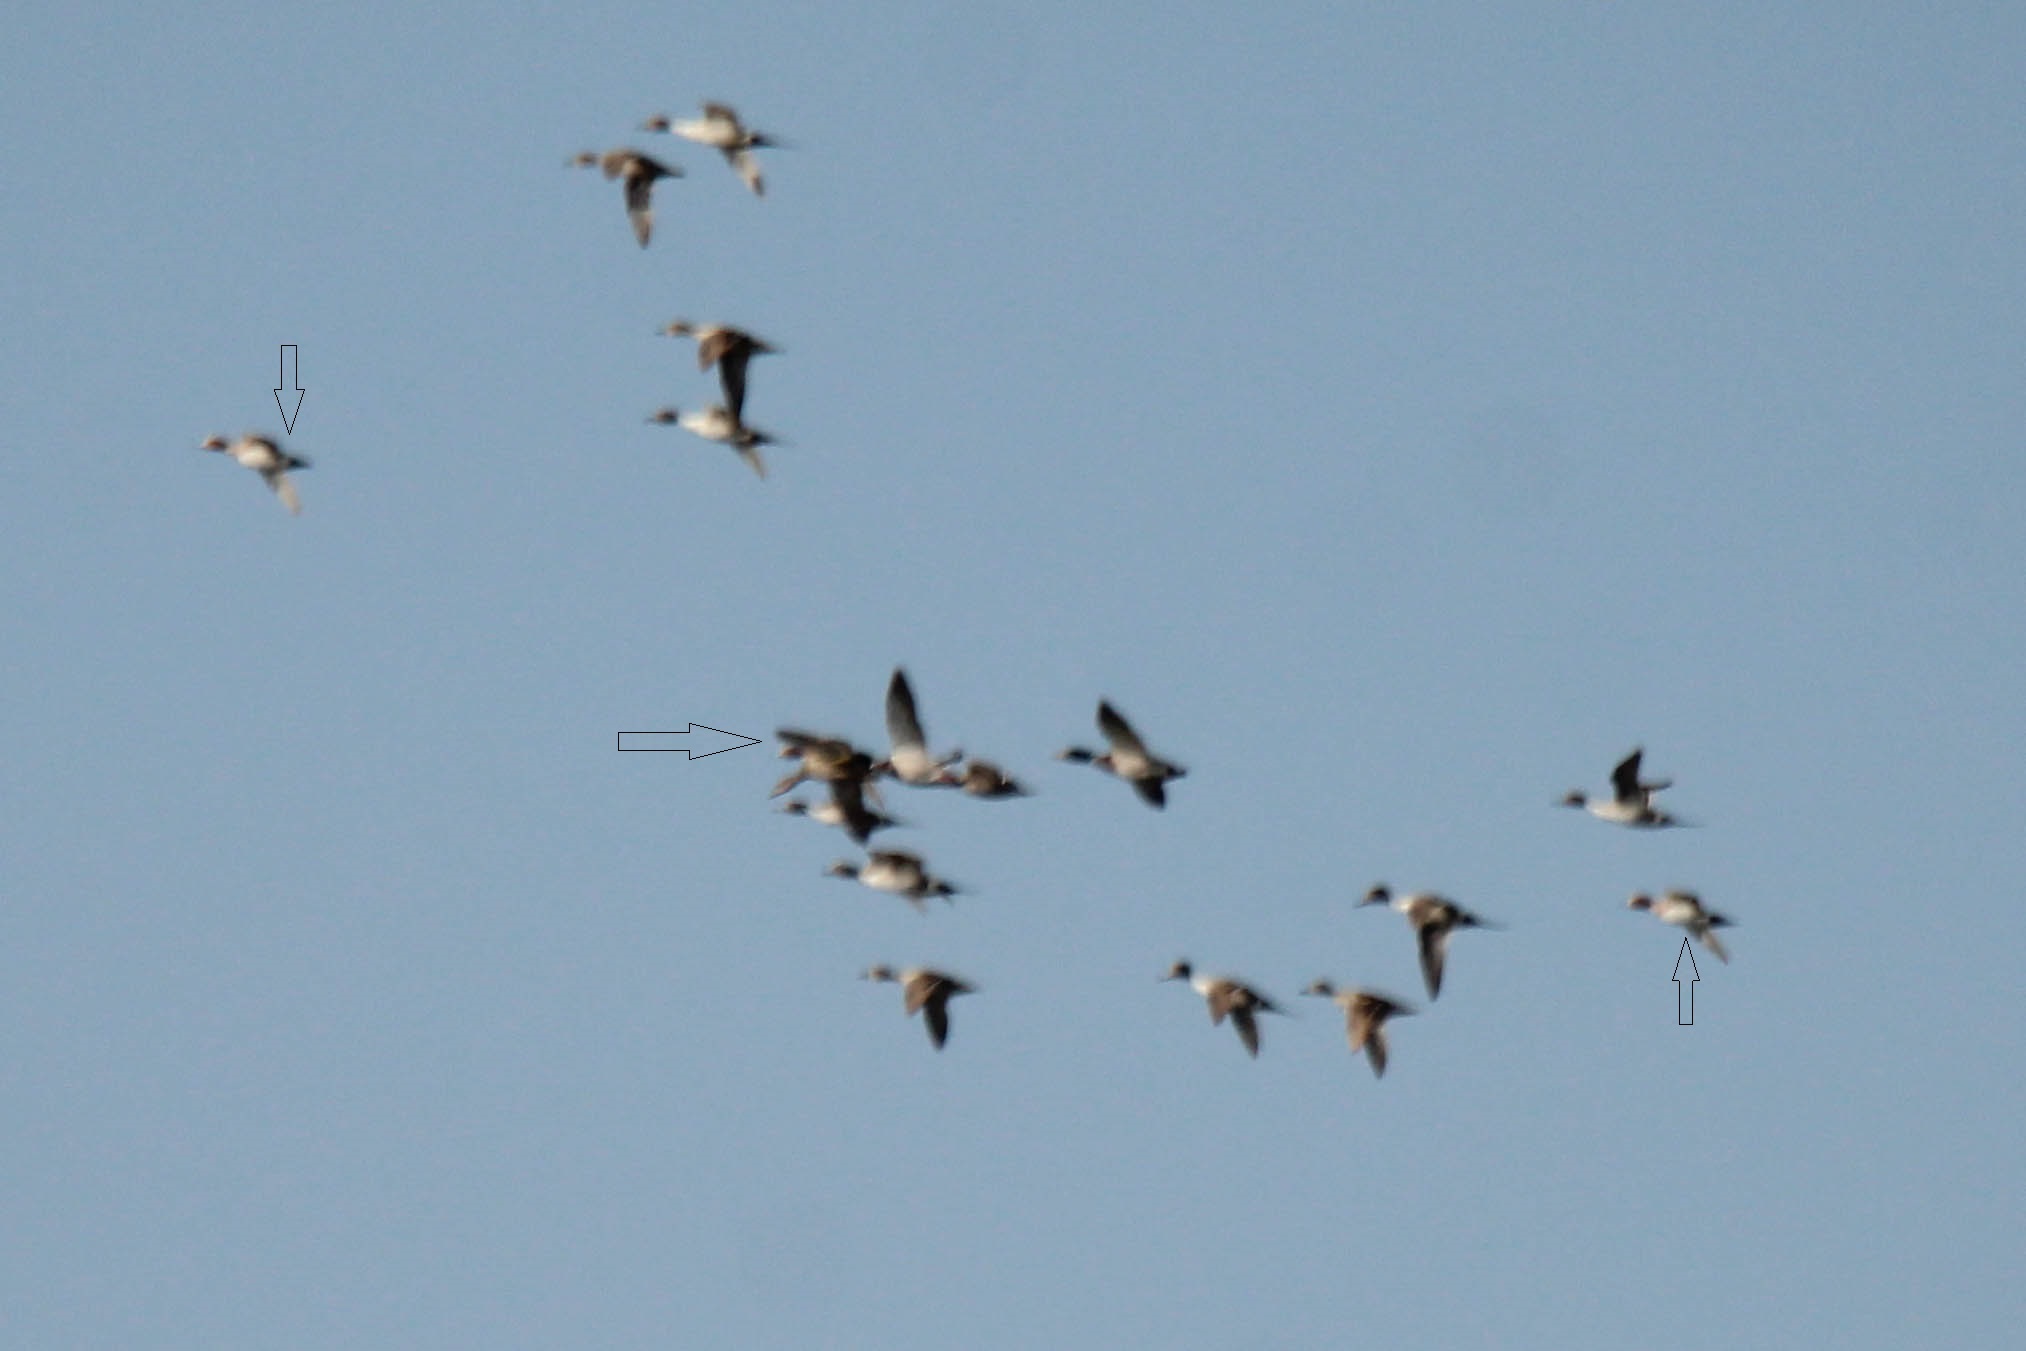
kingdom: Animalia
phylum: Chordata
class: Aves
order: Anseriformes
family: Anatidae
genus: Mareca
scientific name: Mareca penelope
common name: Eurasian wigeon
